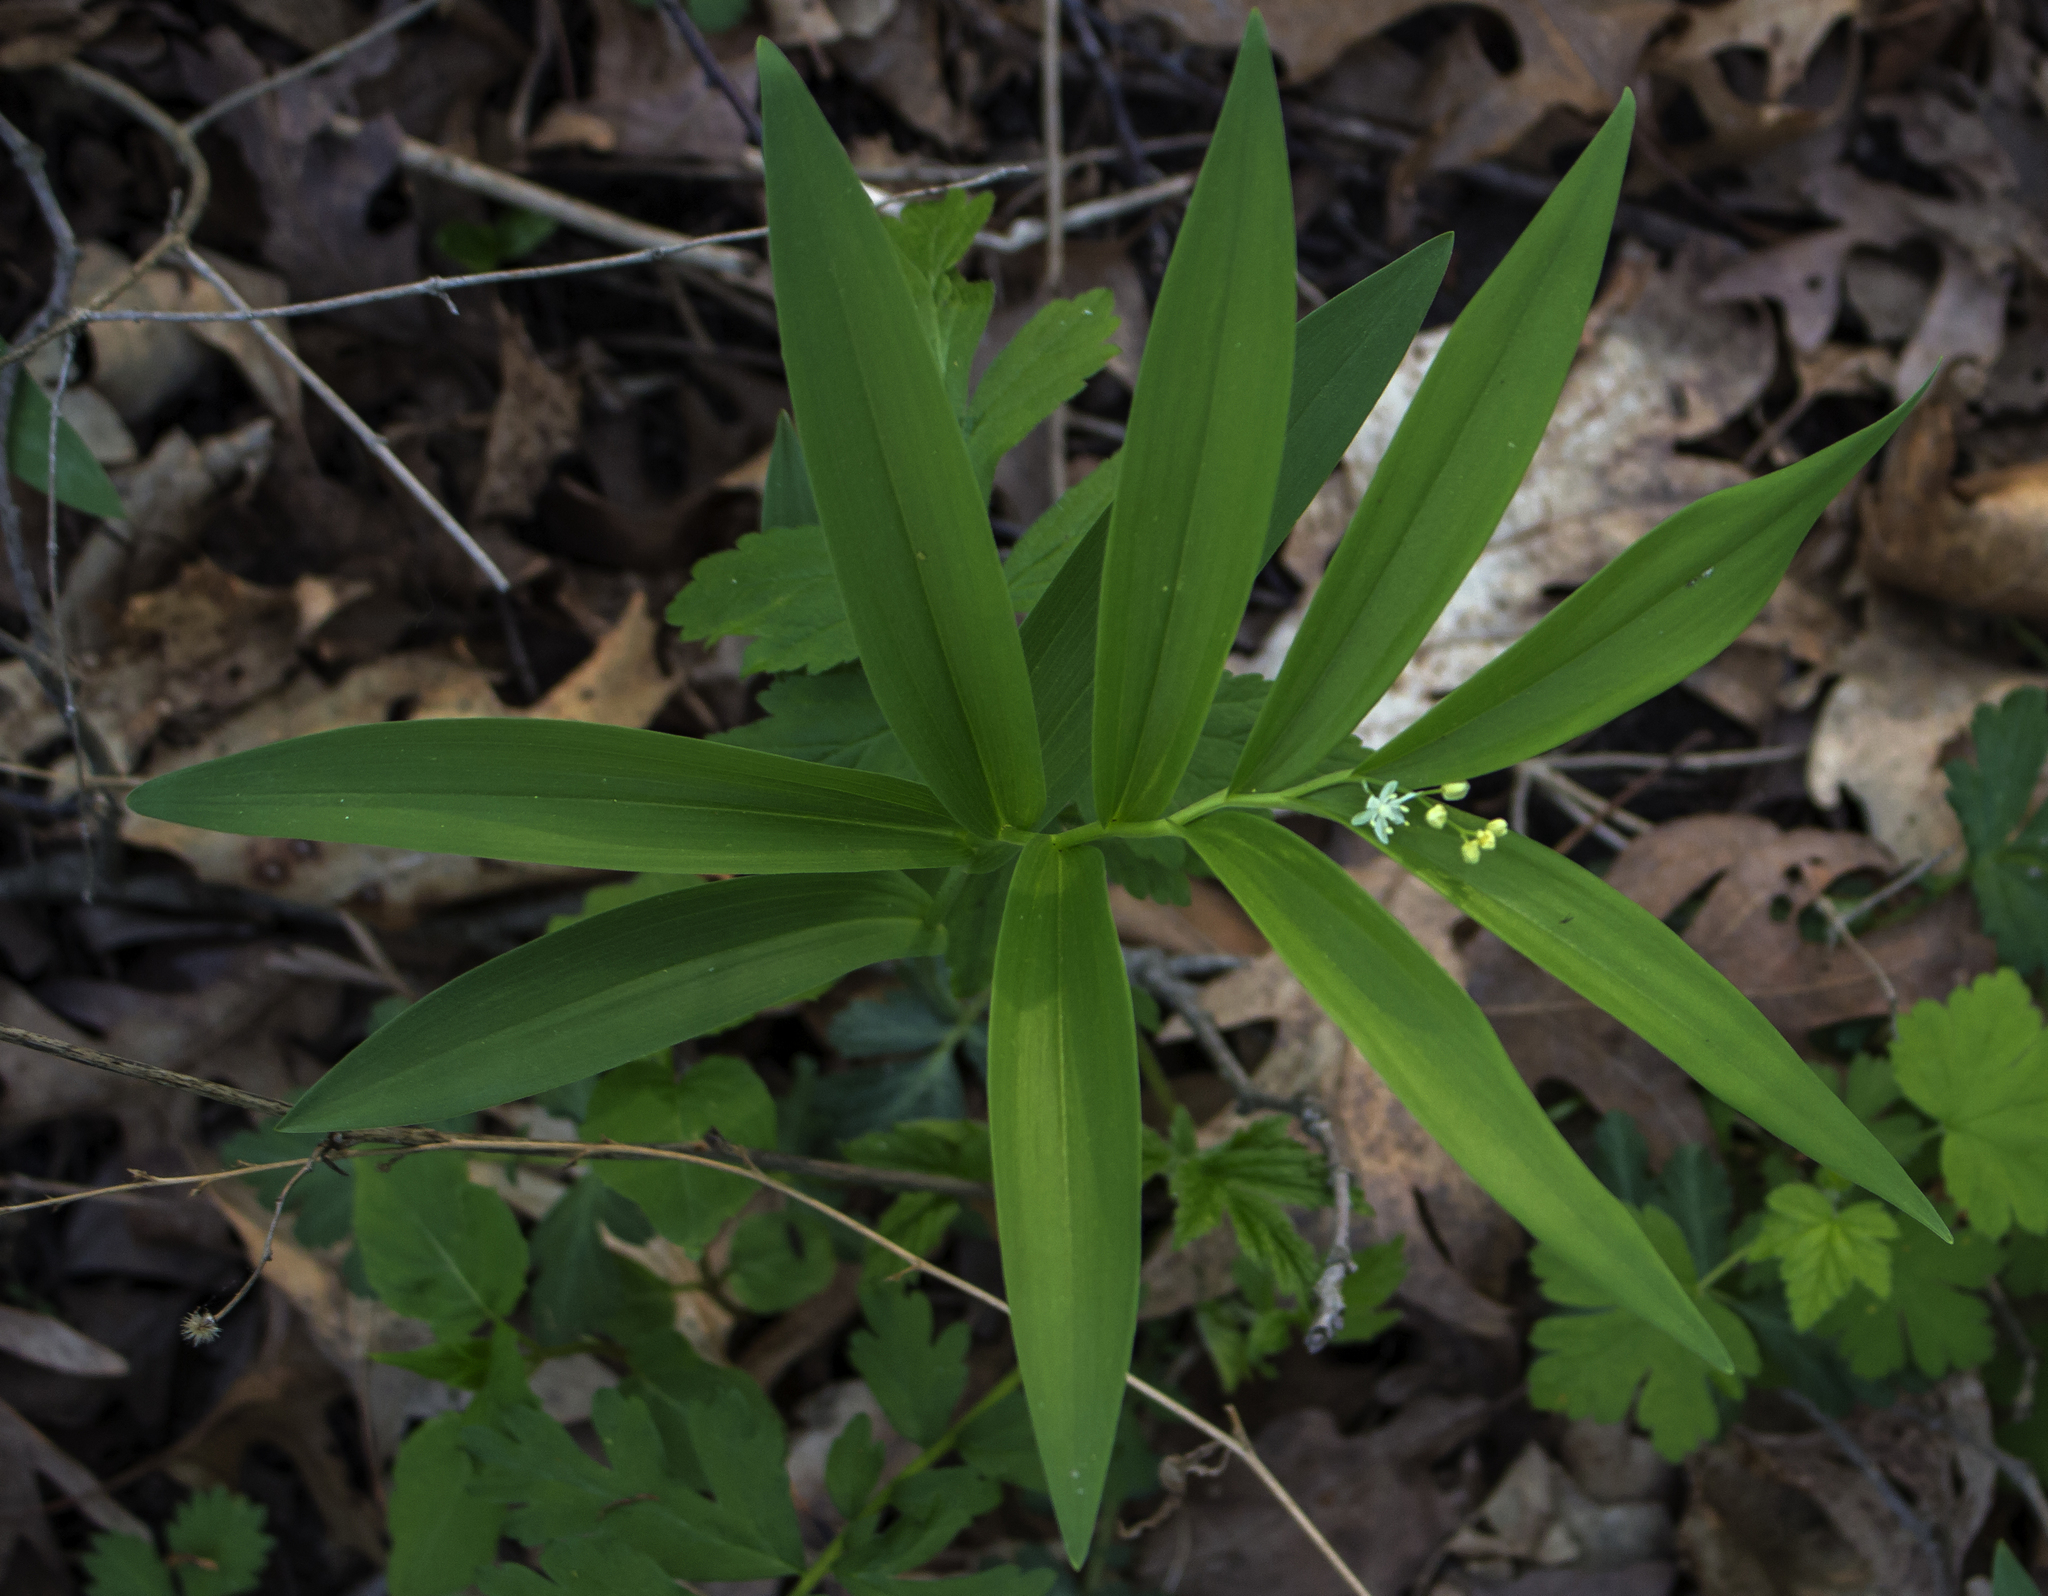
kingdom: Plantae
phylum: Tracheophyta
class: Liliopsida
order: Asparagales
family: Asparagaceae
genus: Maianthemum
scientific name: Maianthemum stellatum
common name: Little false solomon's seal
